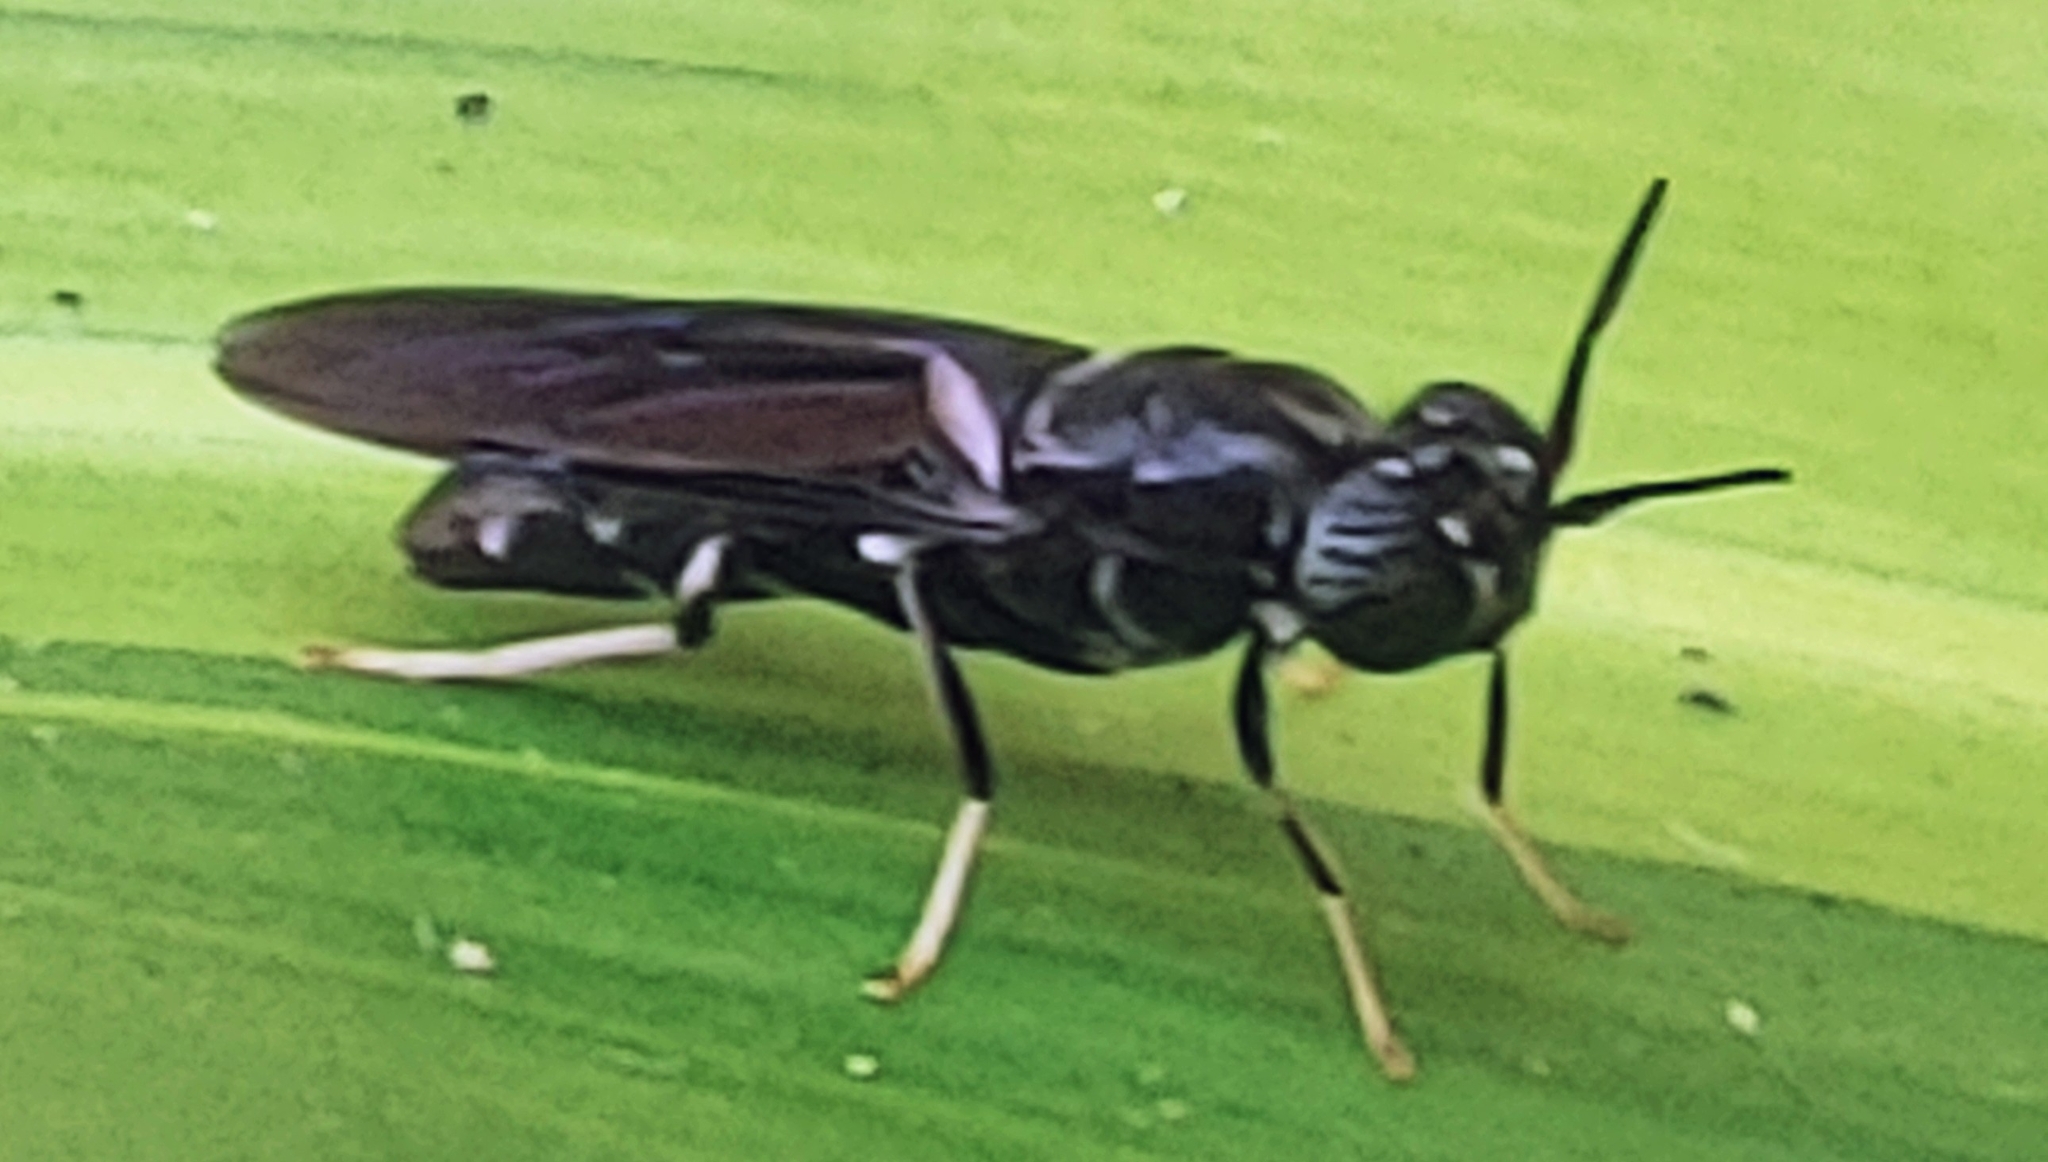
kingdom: Animalia
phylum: Arthropoda
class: Insecta
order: Diptera
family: Stratiomyidae
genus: Hermetia
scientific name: Hermetia illucens
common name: Black soldier fly
